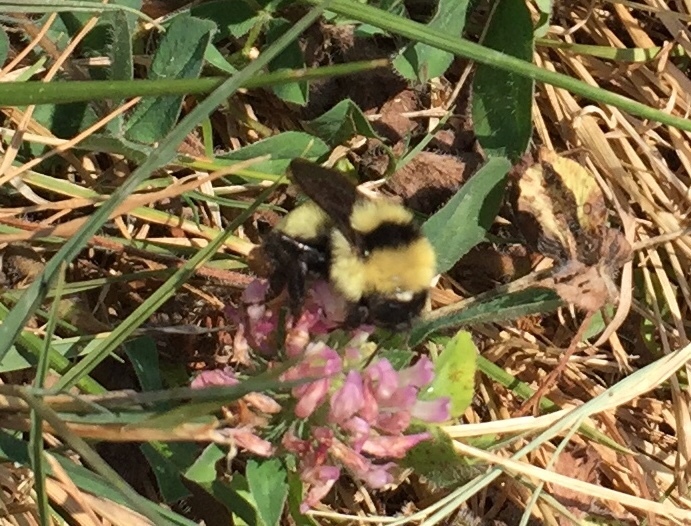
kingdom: Animalia
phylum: Arthropoda
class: Insecta
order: Hymenoptera
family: Apidae
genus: Bombus
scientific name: Bombus fervidus
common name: Yellow bumble bee
